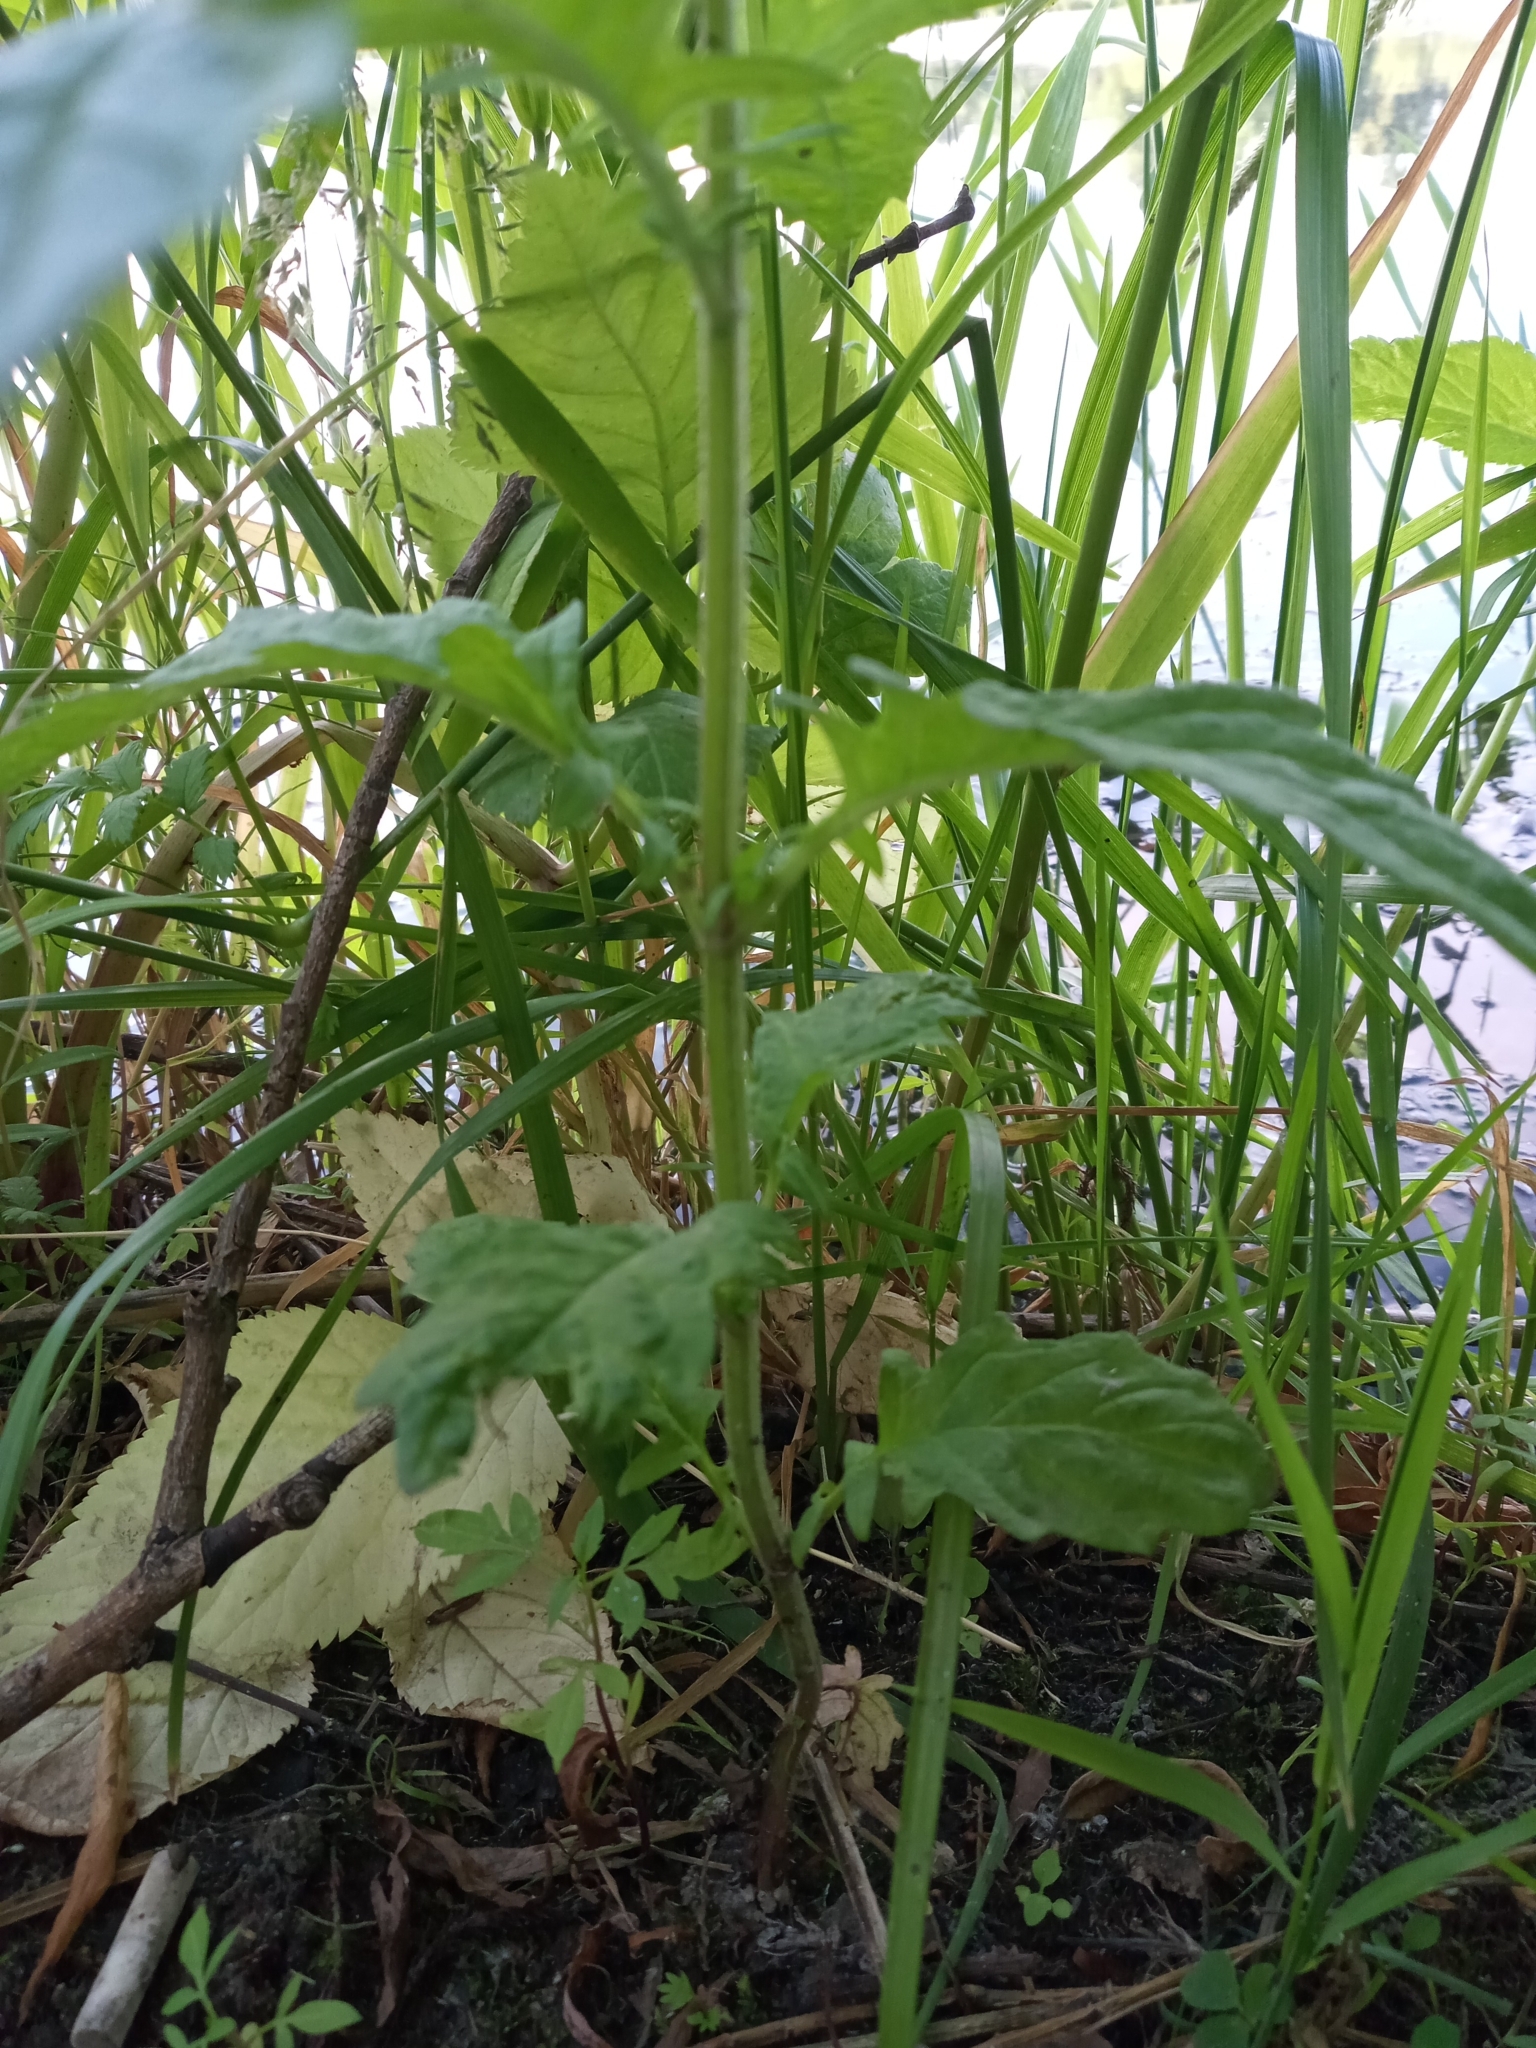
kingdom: Plantae
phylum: Tracheophyta
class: Magnoliopsida
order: Lamiales
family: Lamiaceae
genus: Lycopus
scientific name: Lycopus europaeus
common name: European bugleweed
